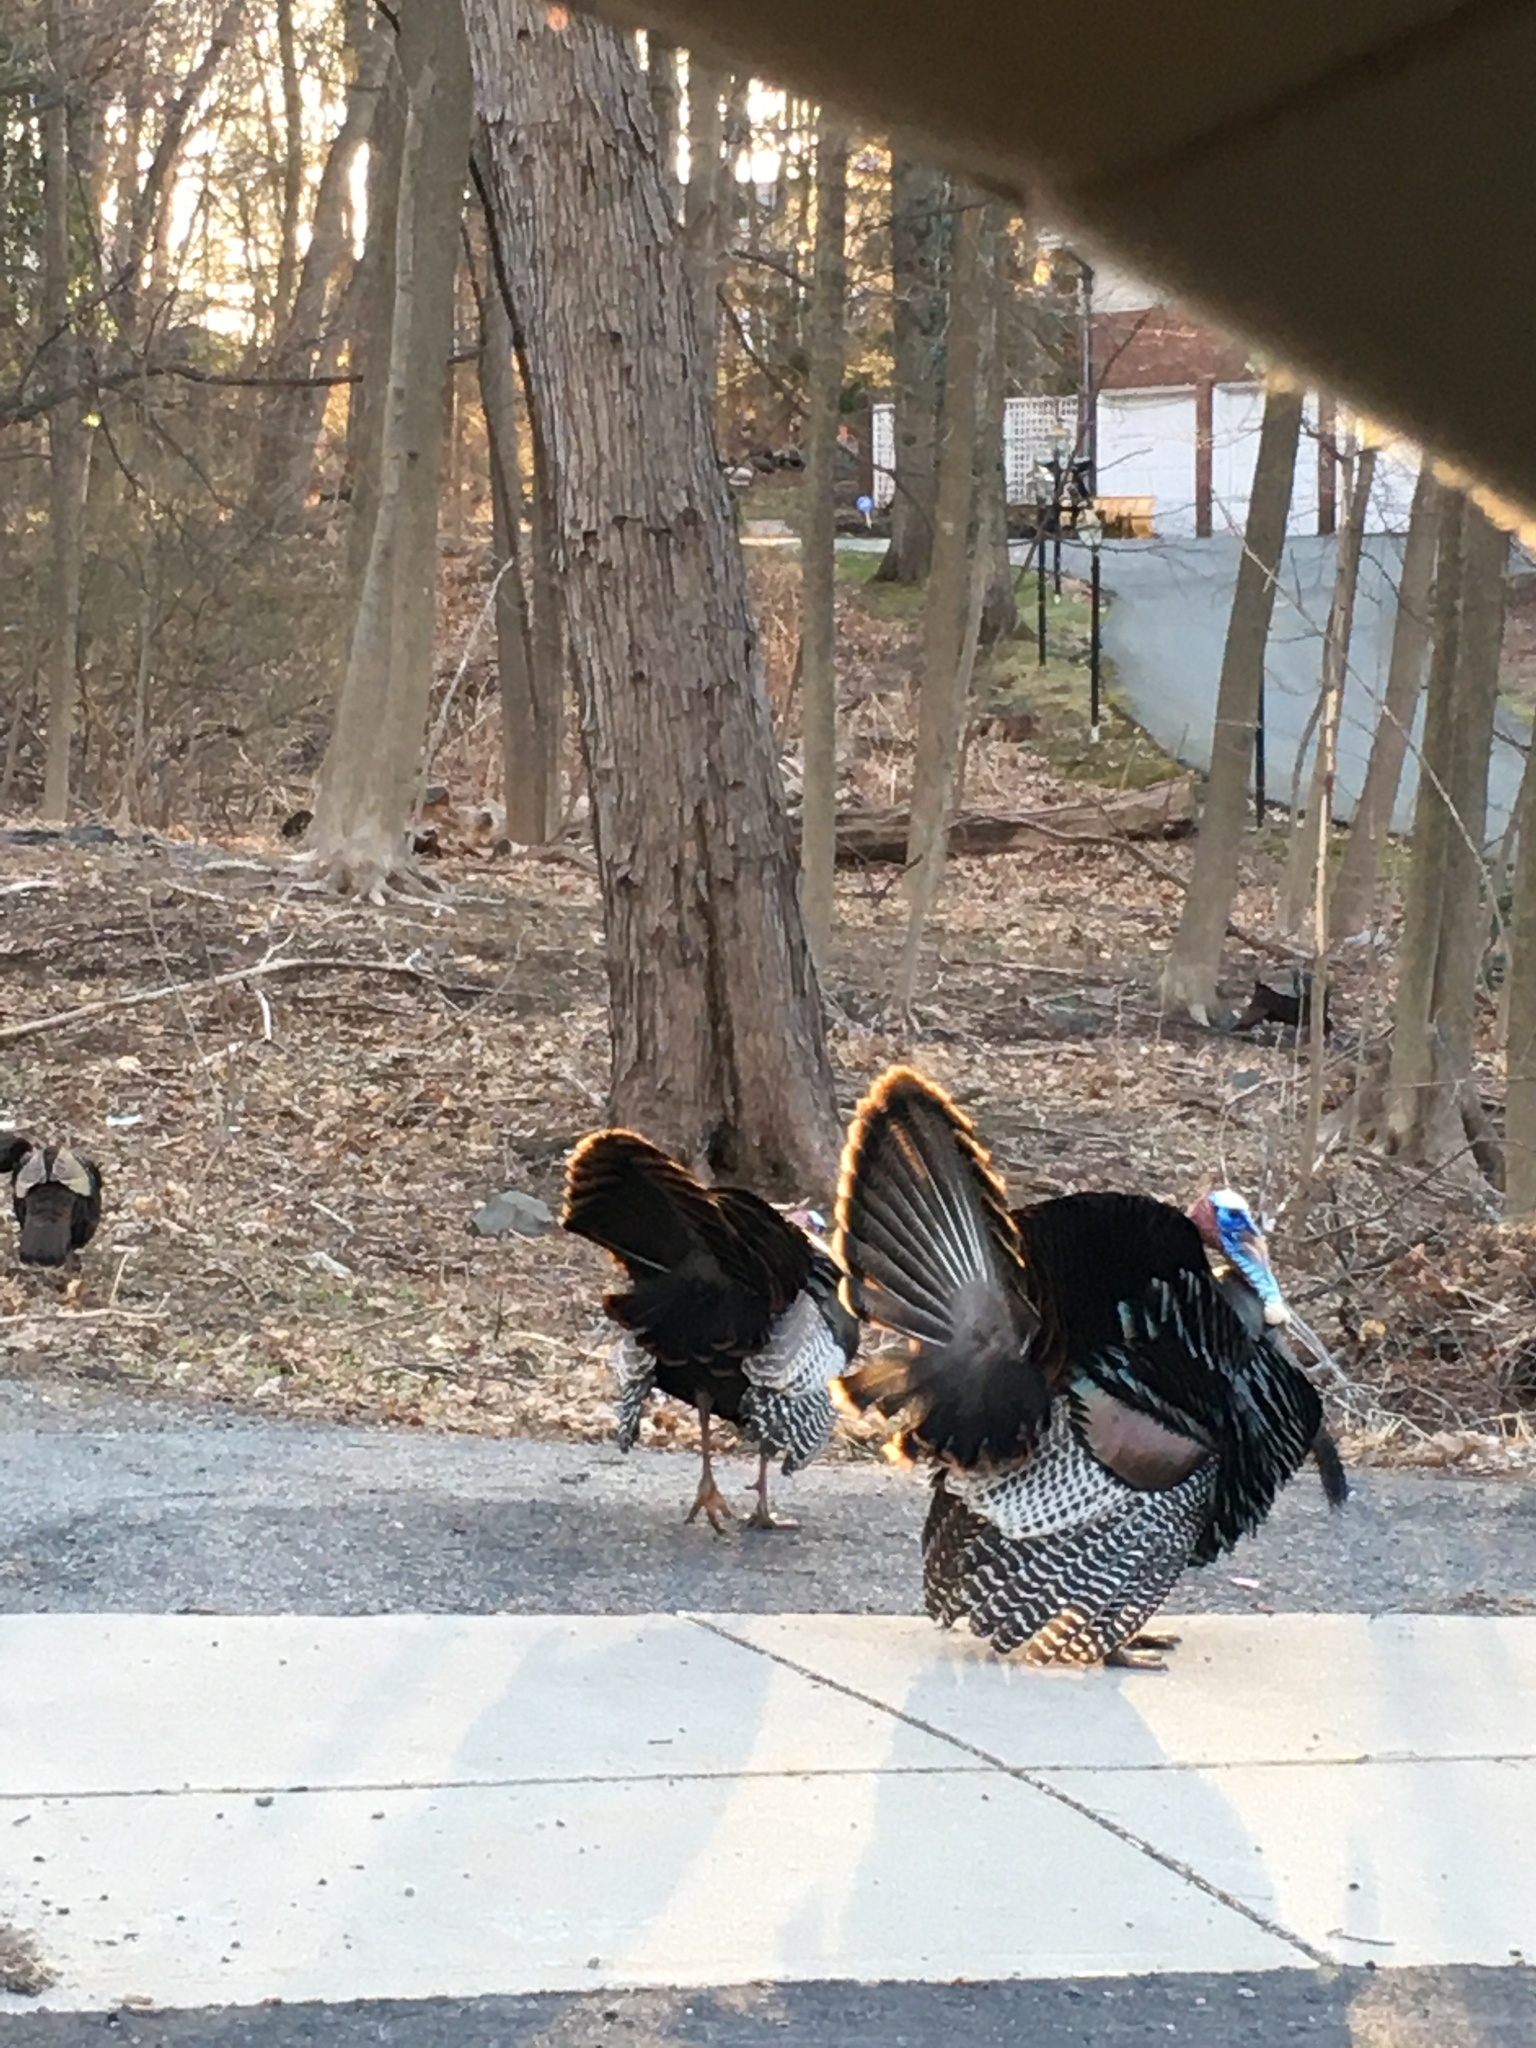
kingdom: Animalia
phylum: Chordata
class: Aves
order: Galliformes
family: Phasianidae
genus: Meleagris
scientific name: Meleagris gallopavo
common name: Wild turkey
